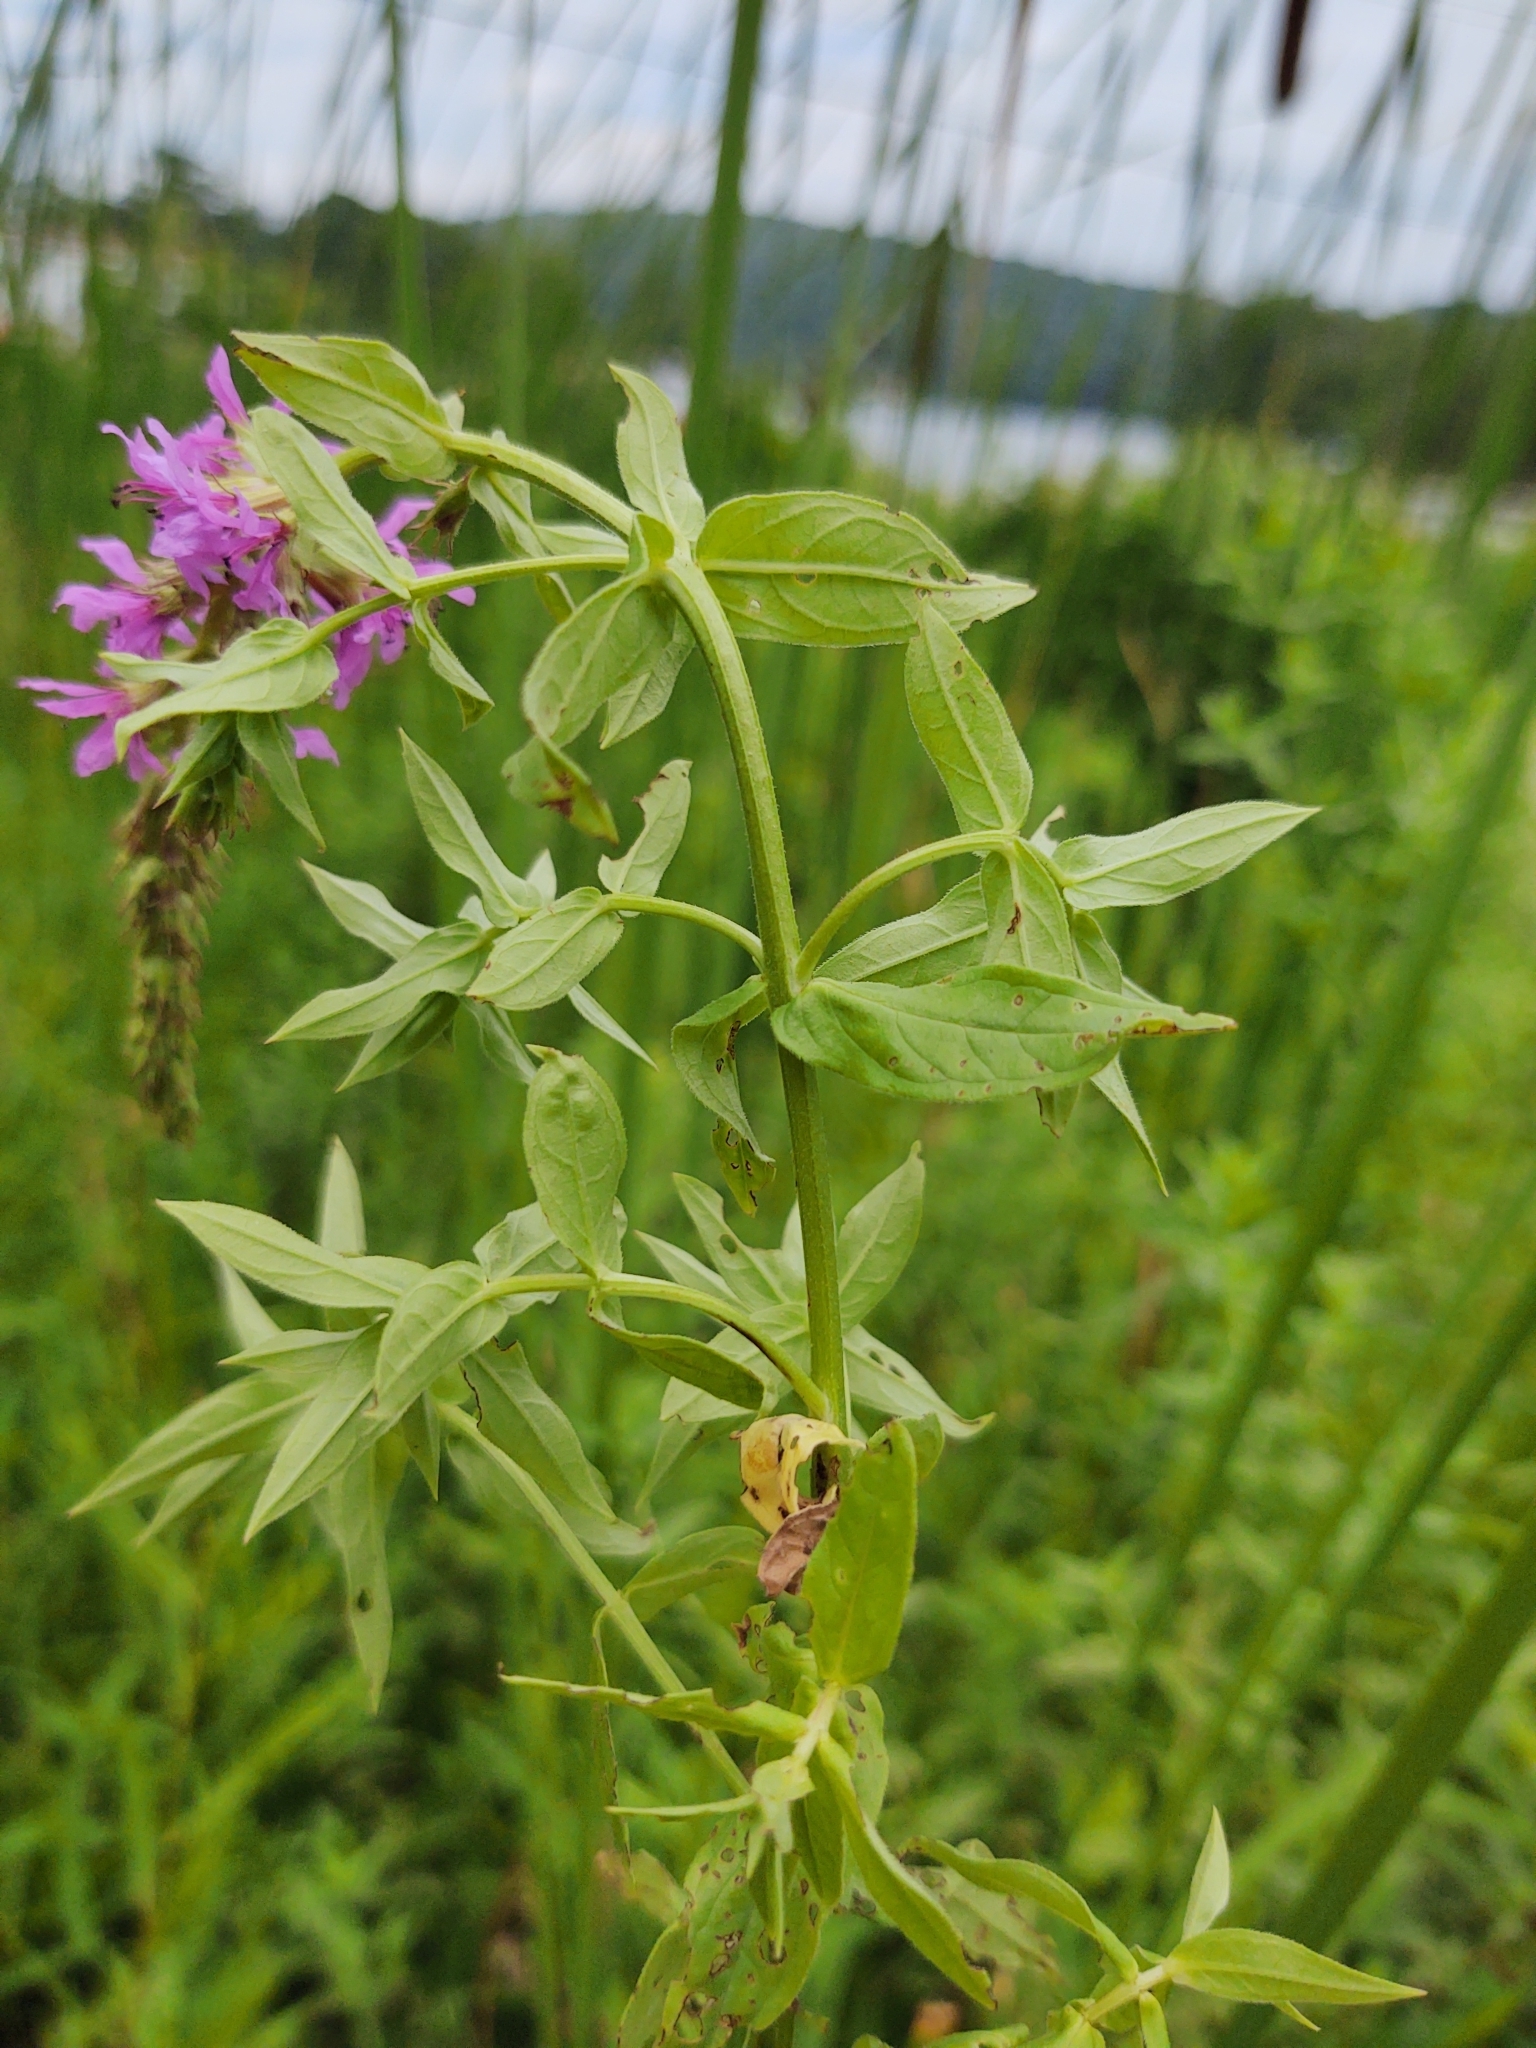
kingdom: Plantae
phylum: Tracheophyta
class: Magnoliopsida
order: Myrtales
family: Lythraceae
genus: Lythrum
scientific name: Lythrum salicaria
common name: Purple loosestrife
